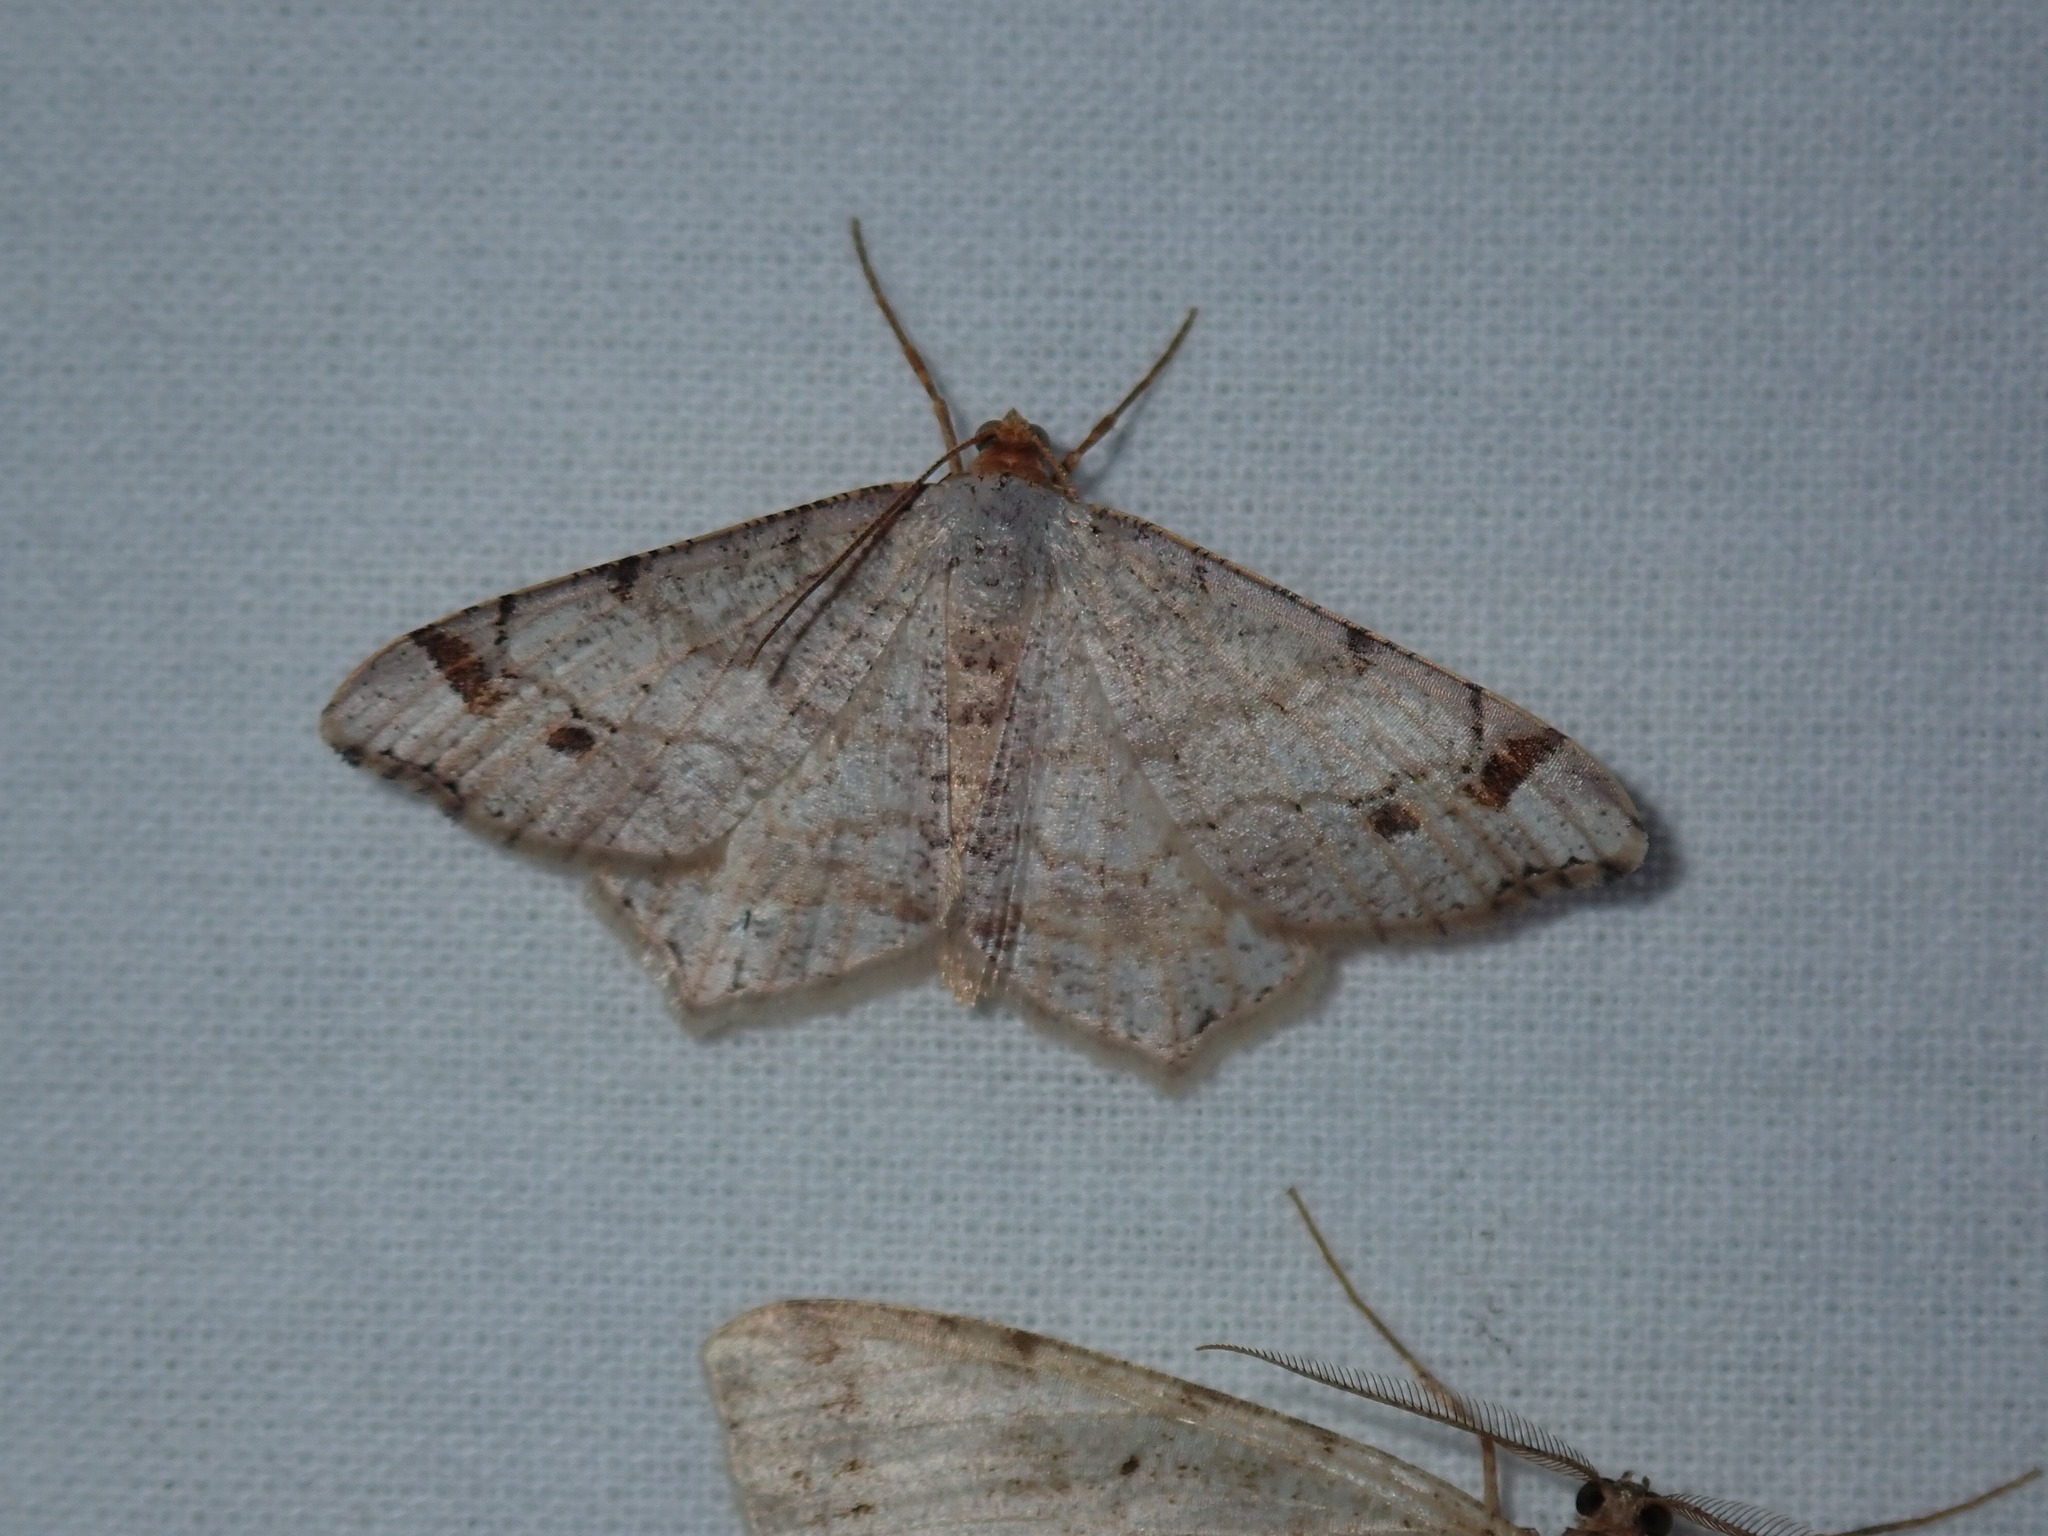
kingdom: Animalia
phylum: Arthropoda
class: Insecta
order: Lepidoptera
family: Geometridae
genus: Macaria
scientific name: Macaria bisignata
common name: Red-headed inchworm
